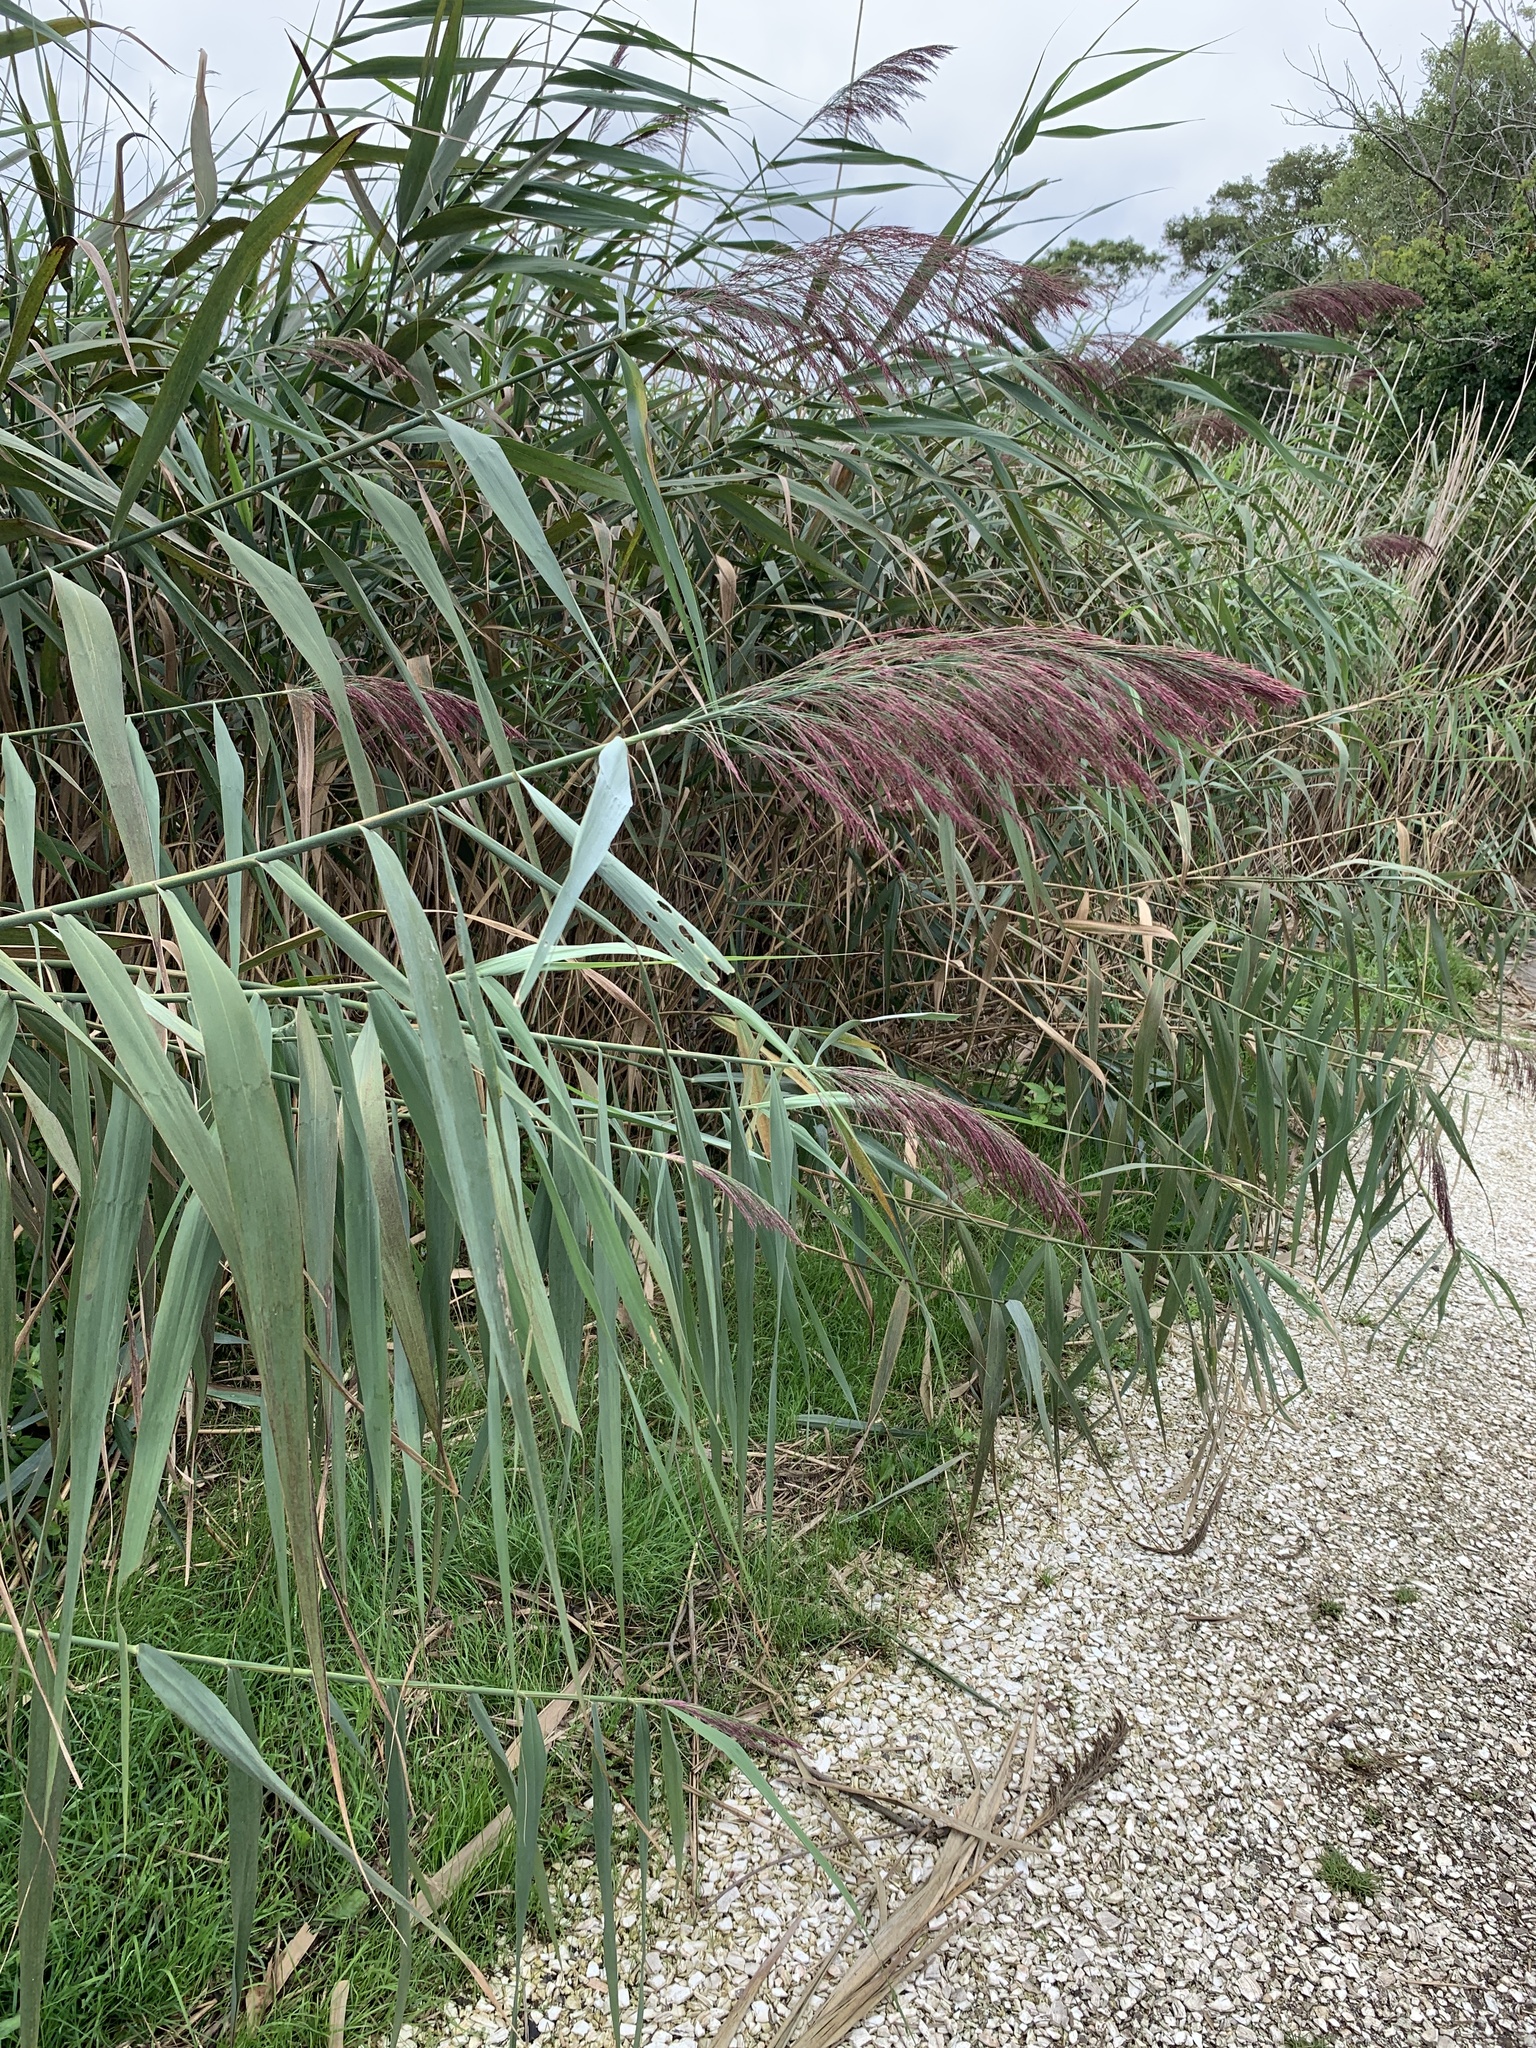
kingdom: Plantae
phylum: Tracheophyta
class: Liliopsida
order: Poales
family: Poaceae
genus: Phragmites
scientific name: Phragmites australis
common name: Common reed
